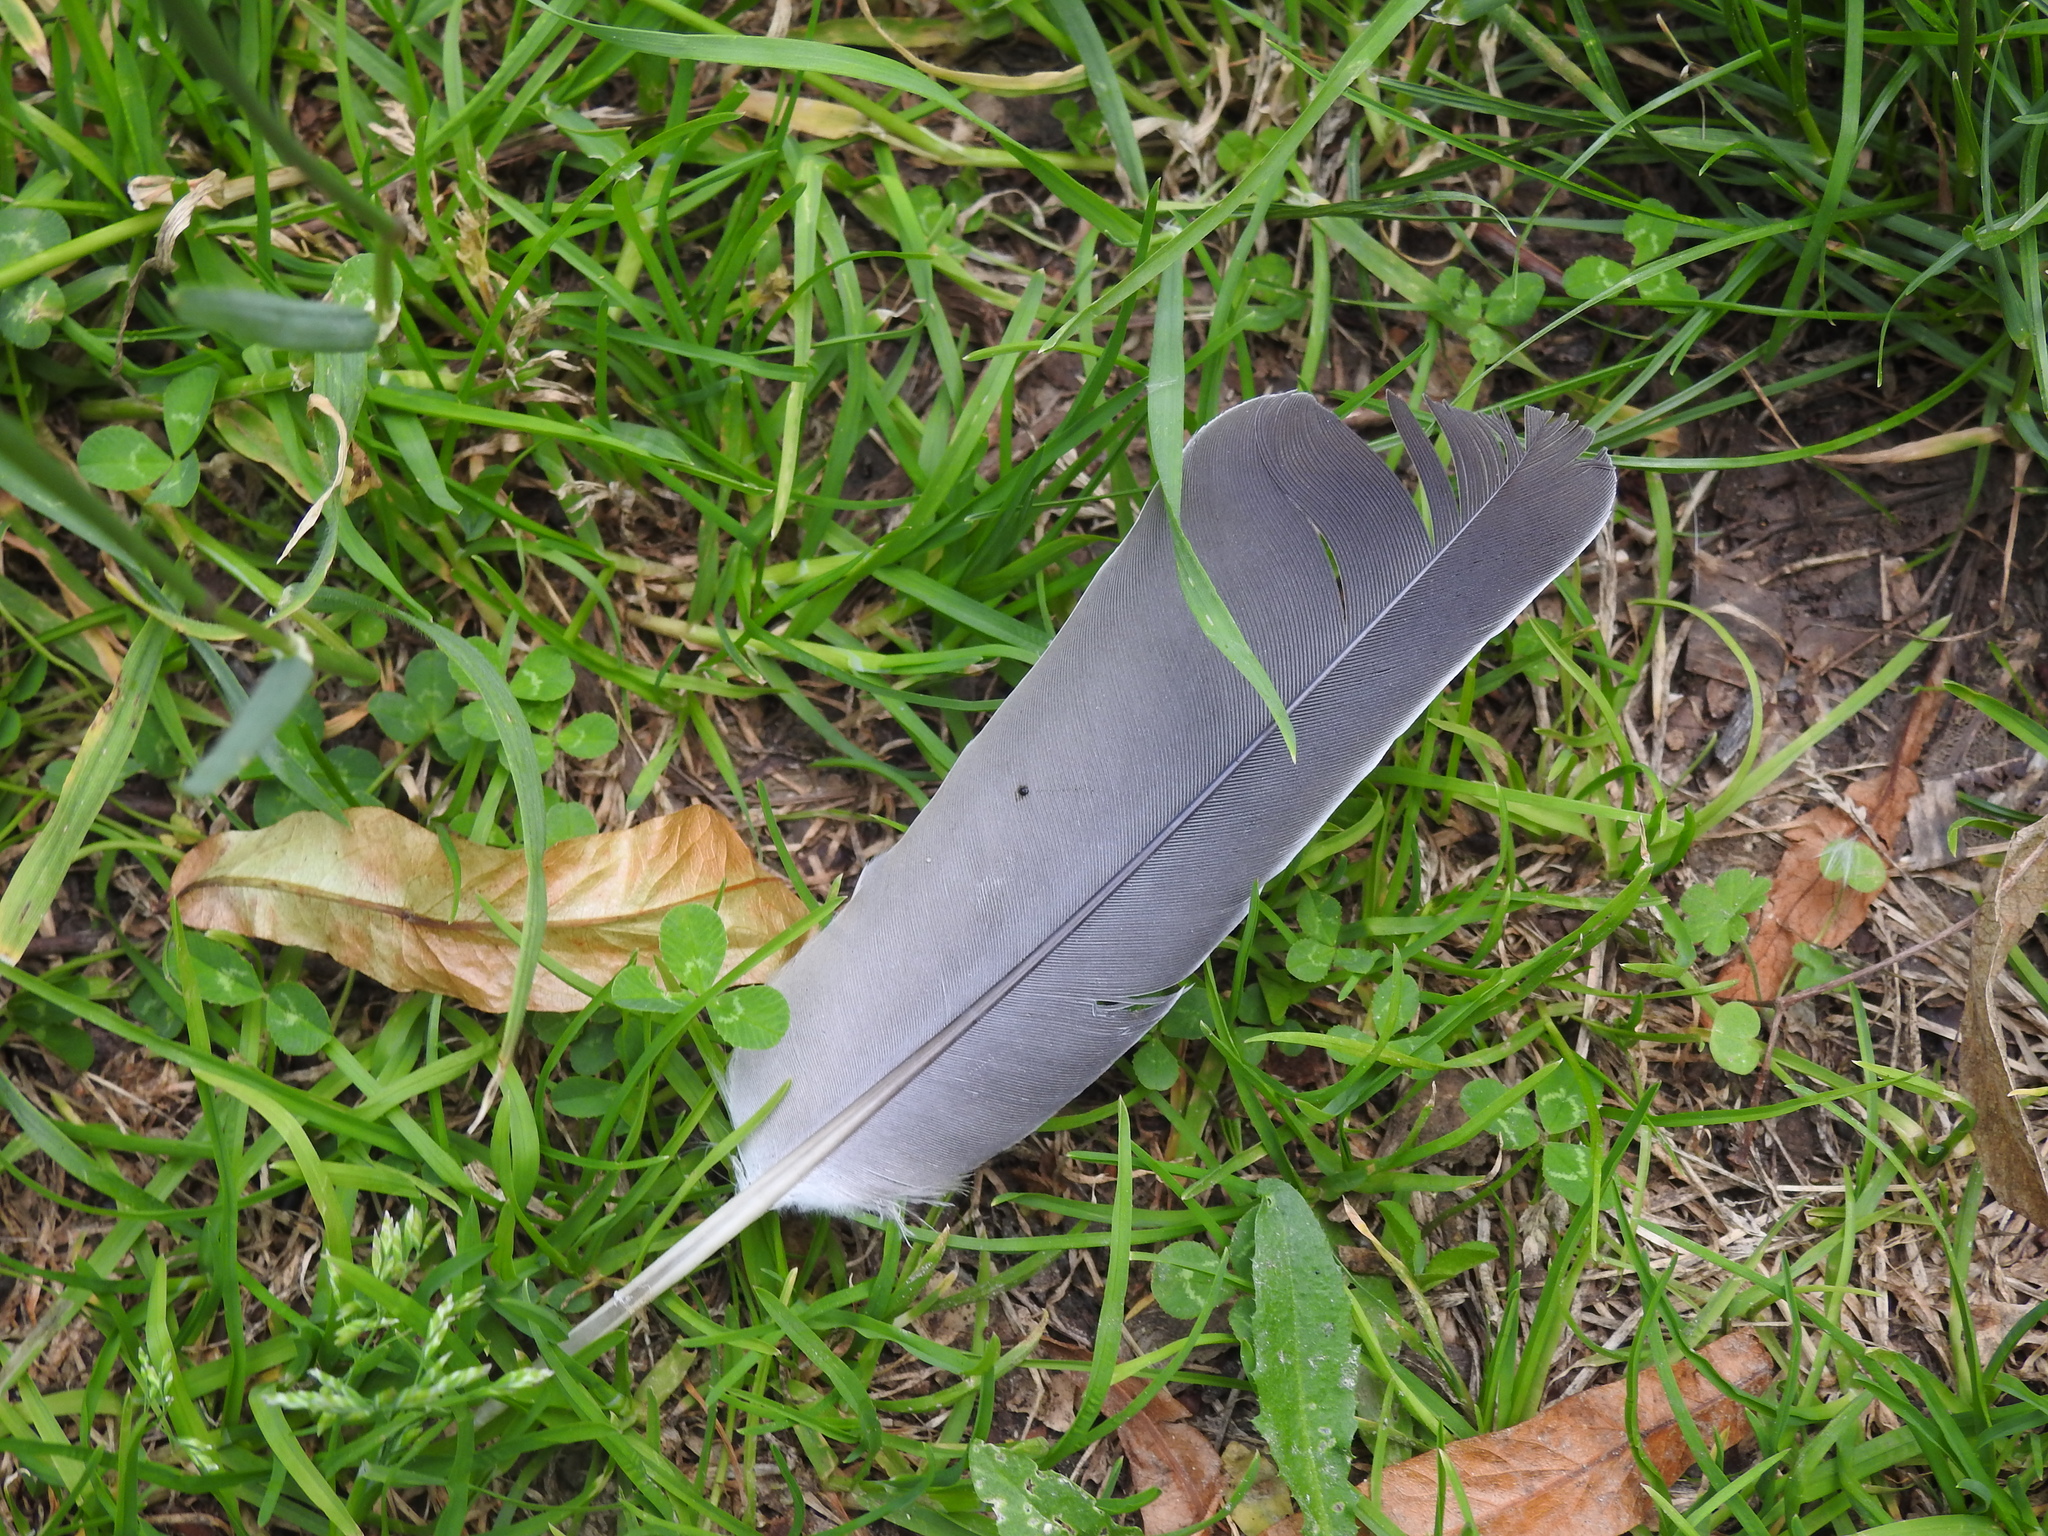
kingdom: Animalia
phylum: Chordata
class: Aves
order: Columbiformes
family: Columbidae
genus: Columba
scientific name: Columba palumbus
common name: Common wood pigeon
